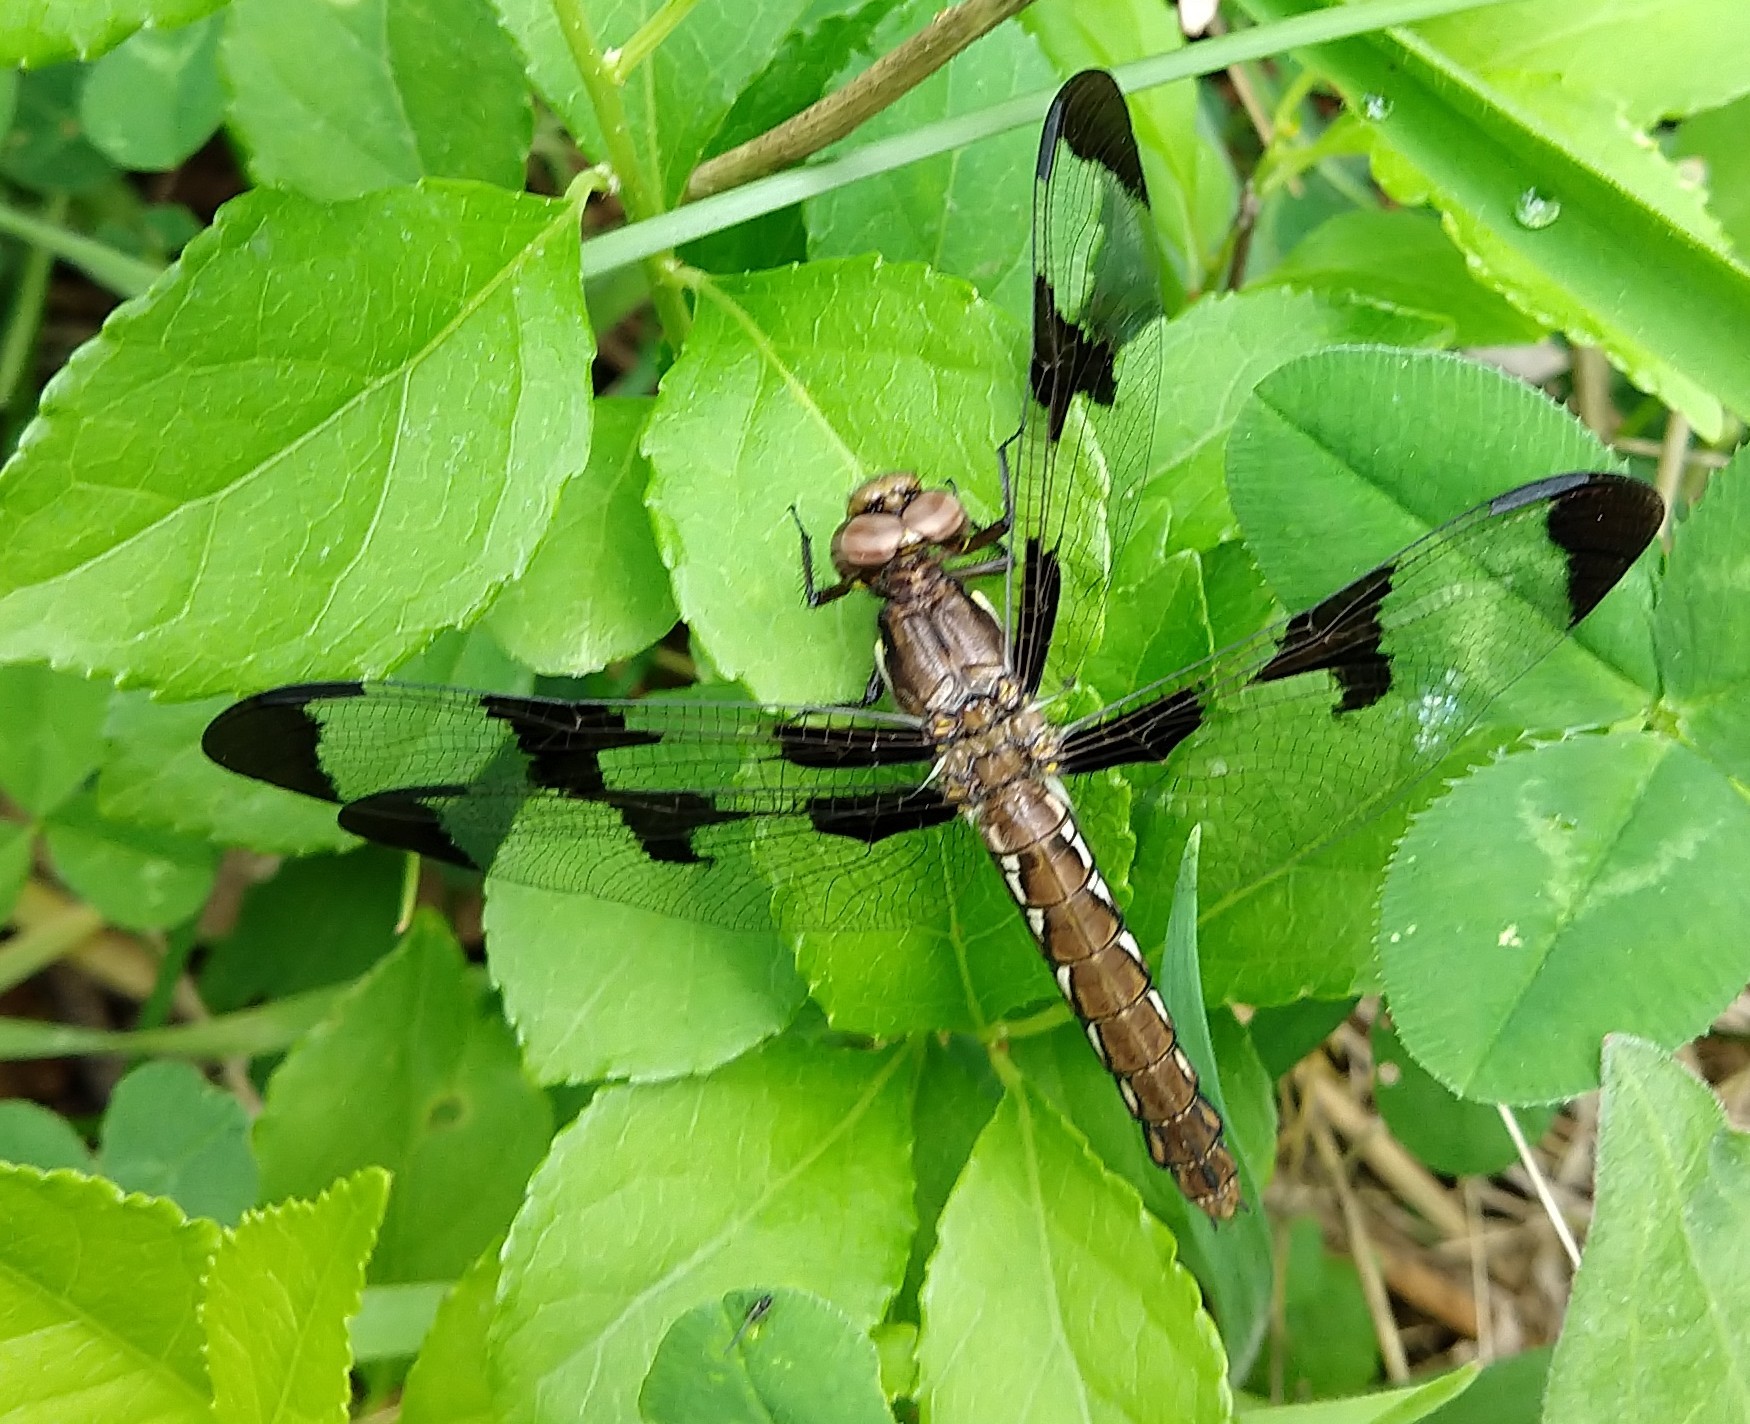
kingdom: Animalia
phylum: Arthropoda
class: Insecta
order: Odonata
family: Libellulidae
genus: Plathemis
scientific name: Plathemis lydia
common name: Common whitetail
